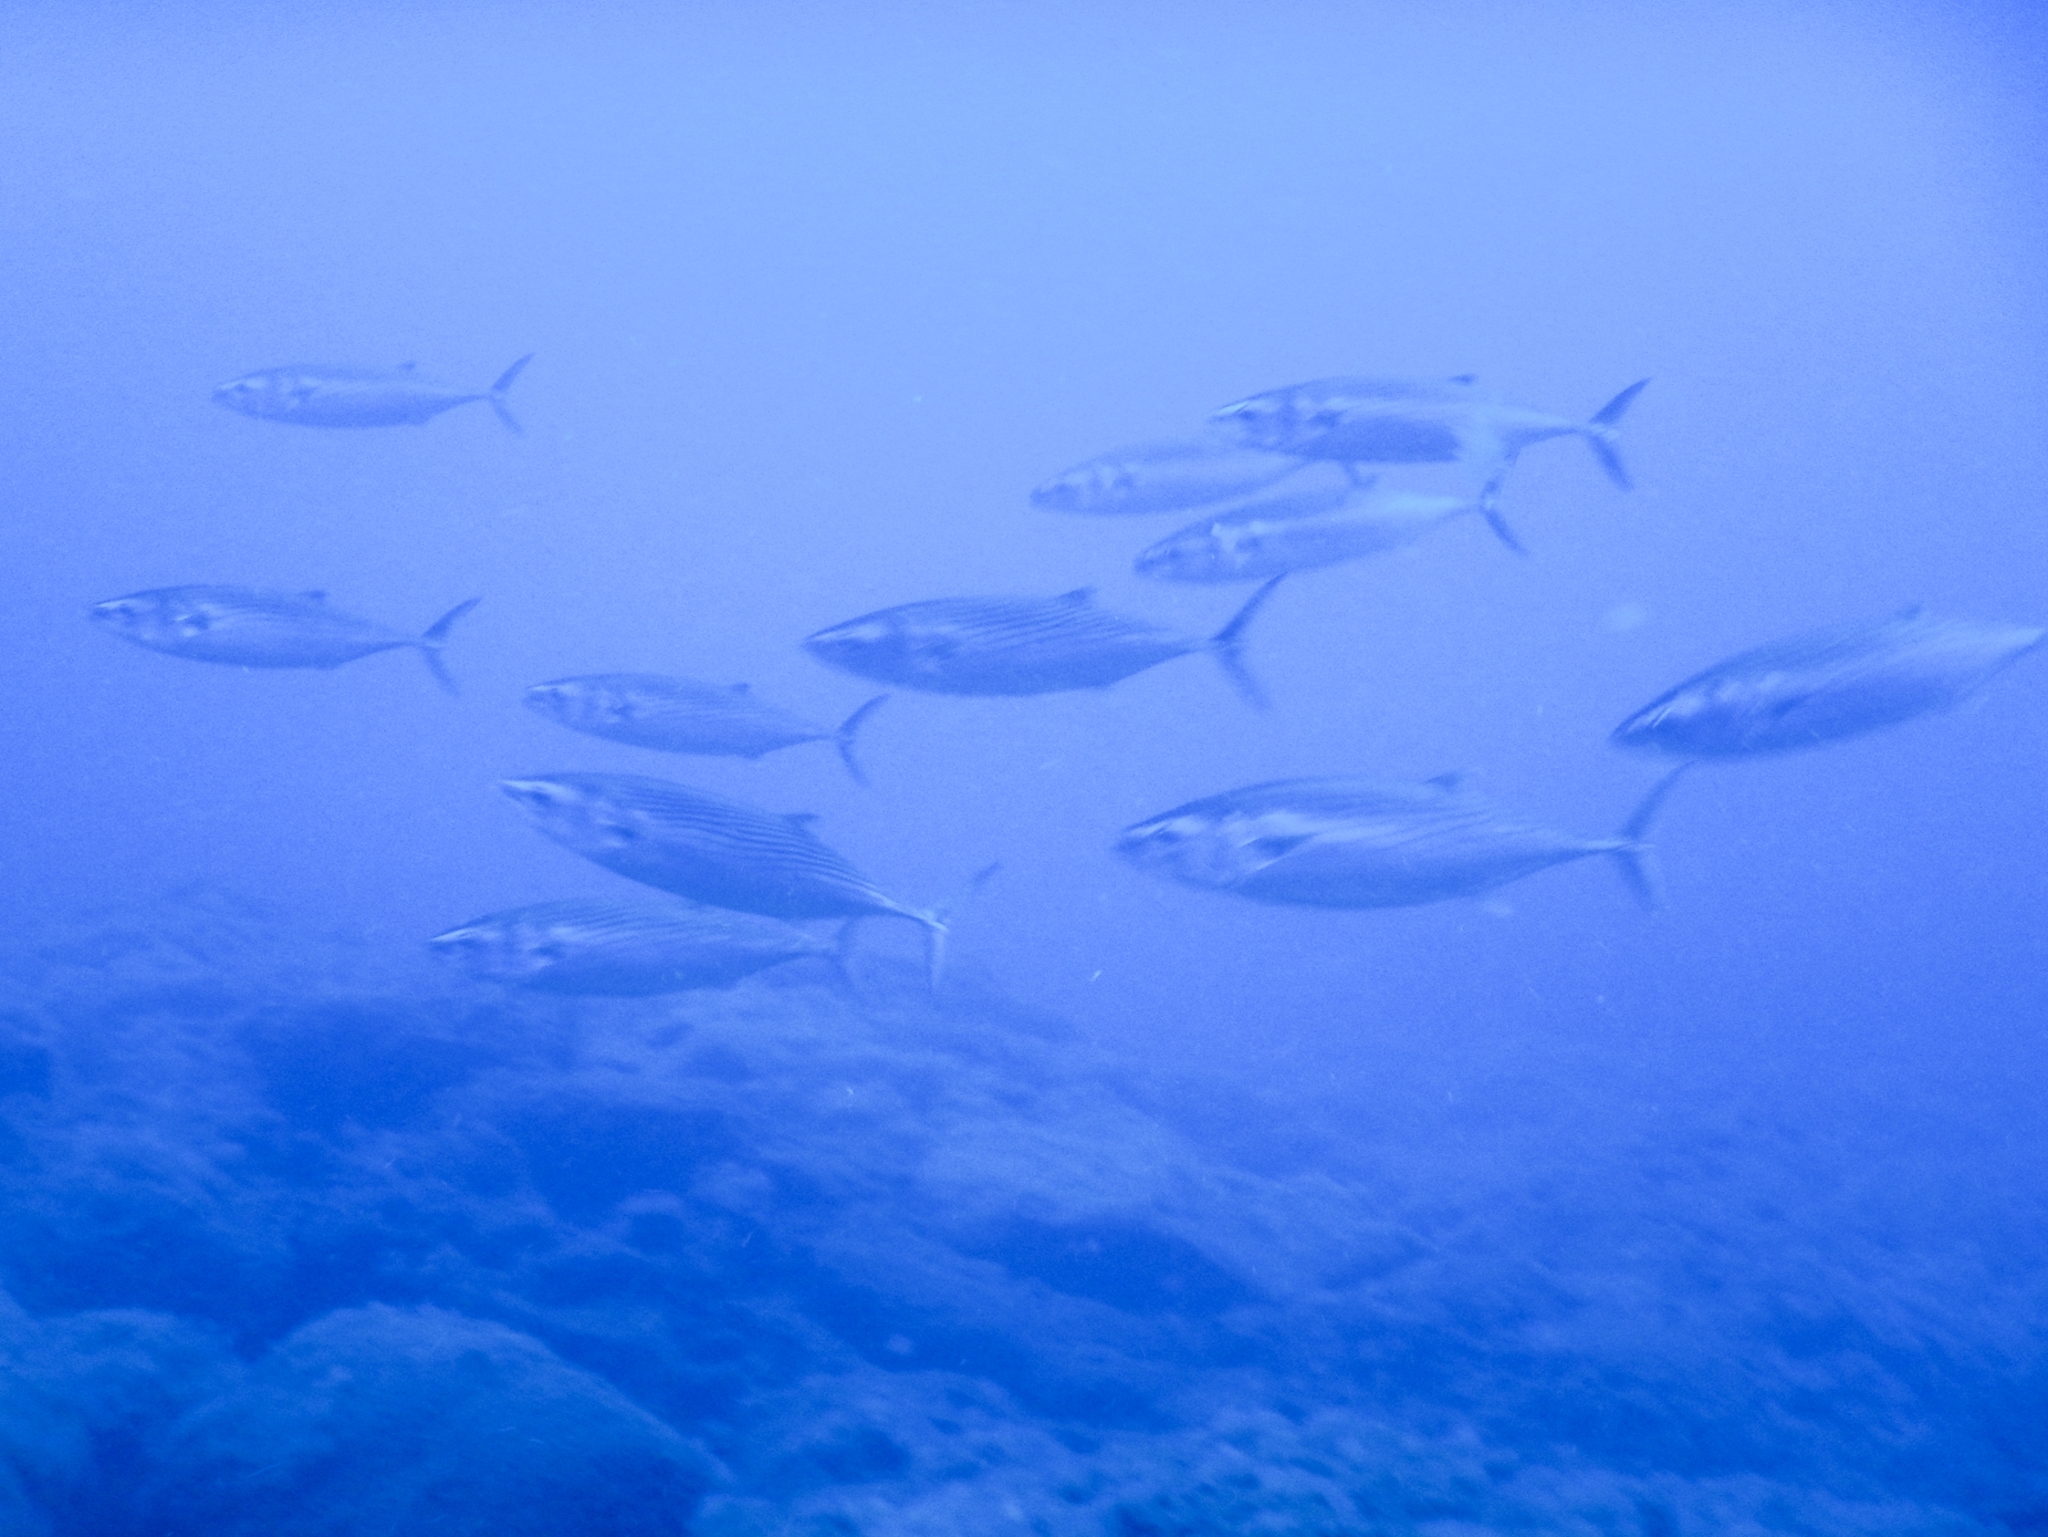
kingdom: Animalia
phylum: Chordata
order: Perciformes
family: Scombridae
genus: Sarda
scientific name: Sarda sarda
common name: Atlantic bonito
